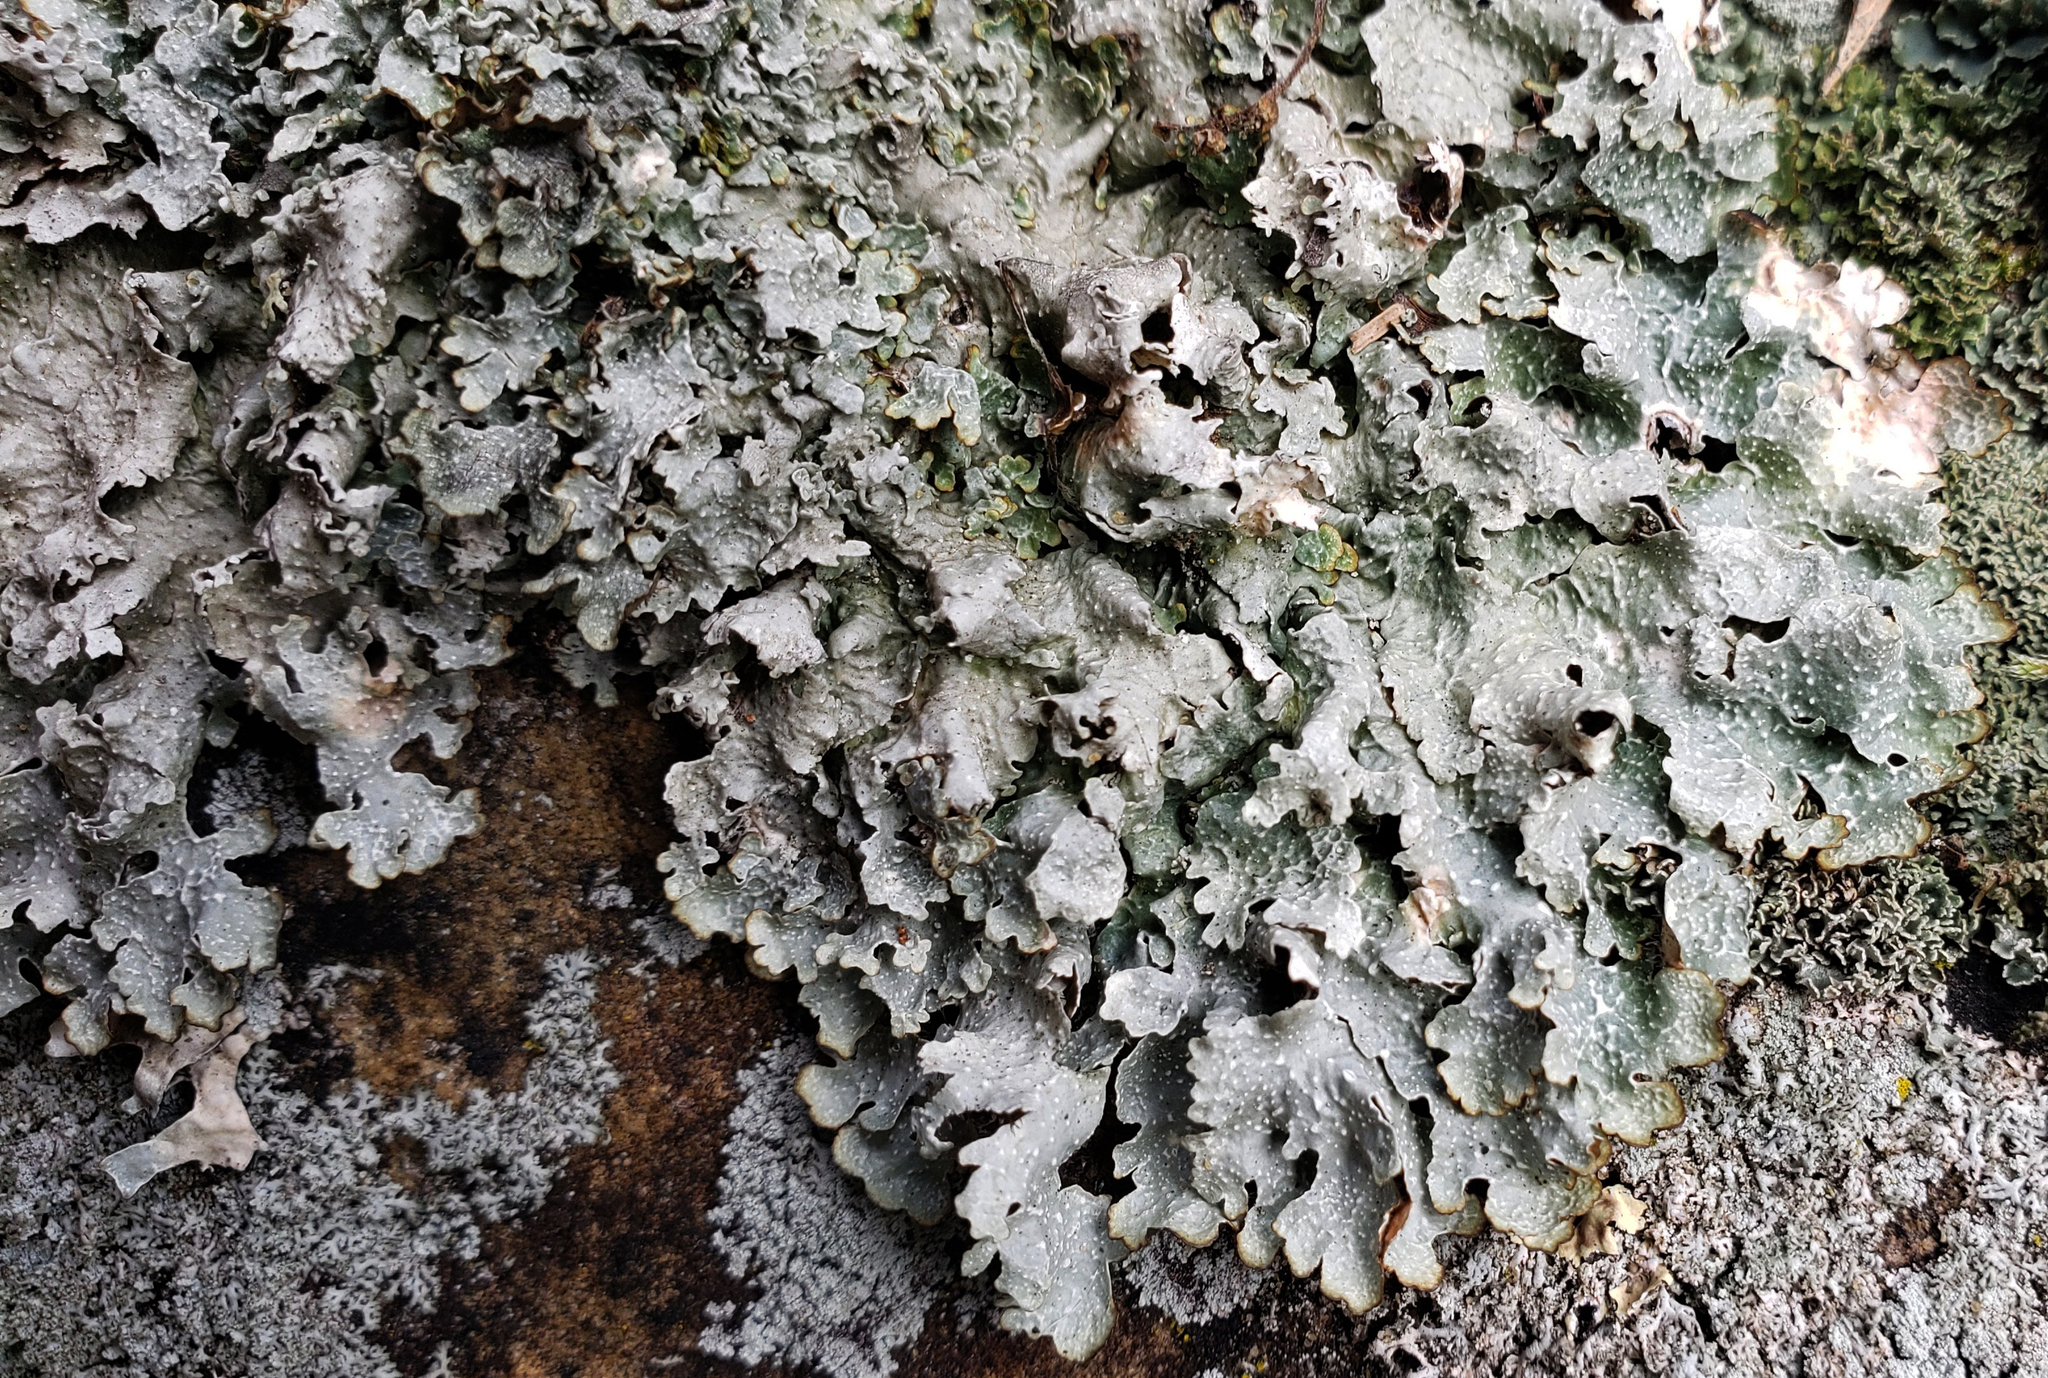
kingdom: Fungi
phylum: Ascomycota
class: Lecanoromycetes
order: Lecanorales
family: Parmeliaceae
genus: Punctelia
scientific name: Punctelia graminicola
